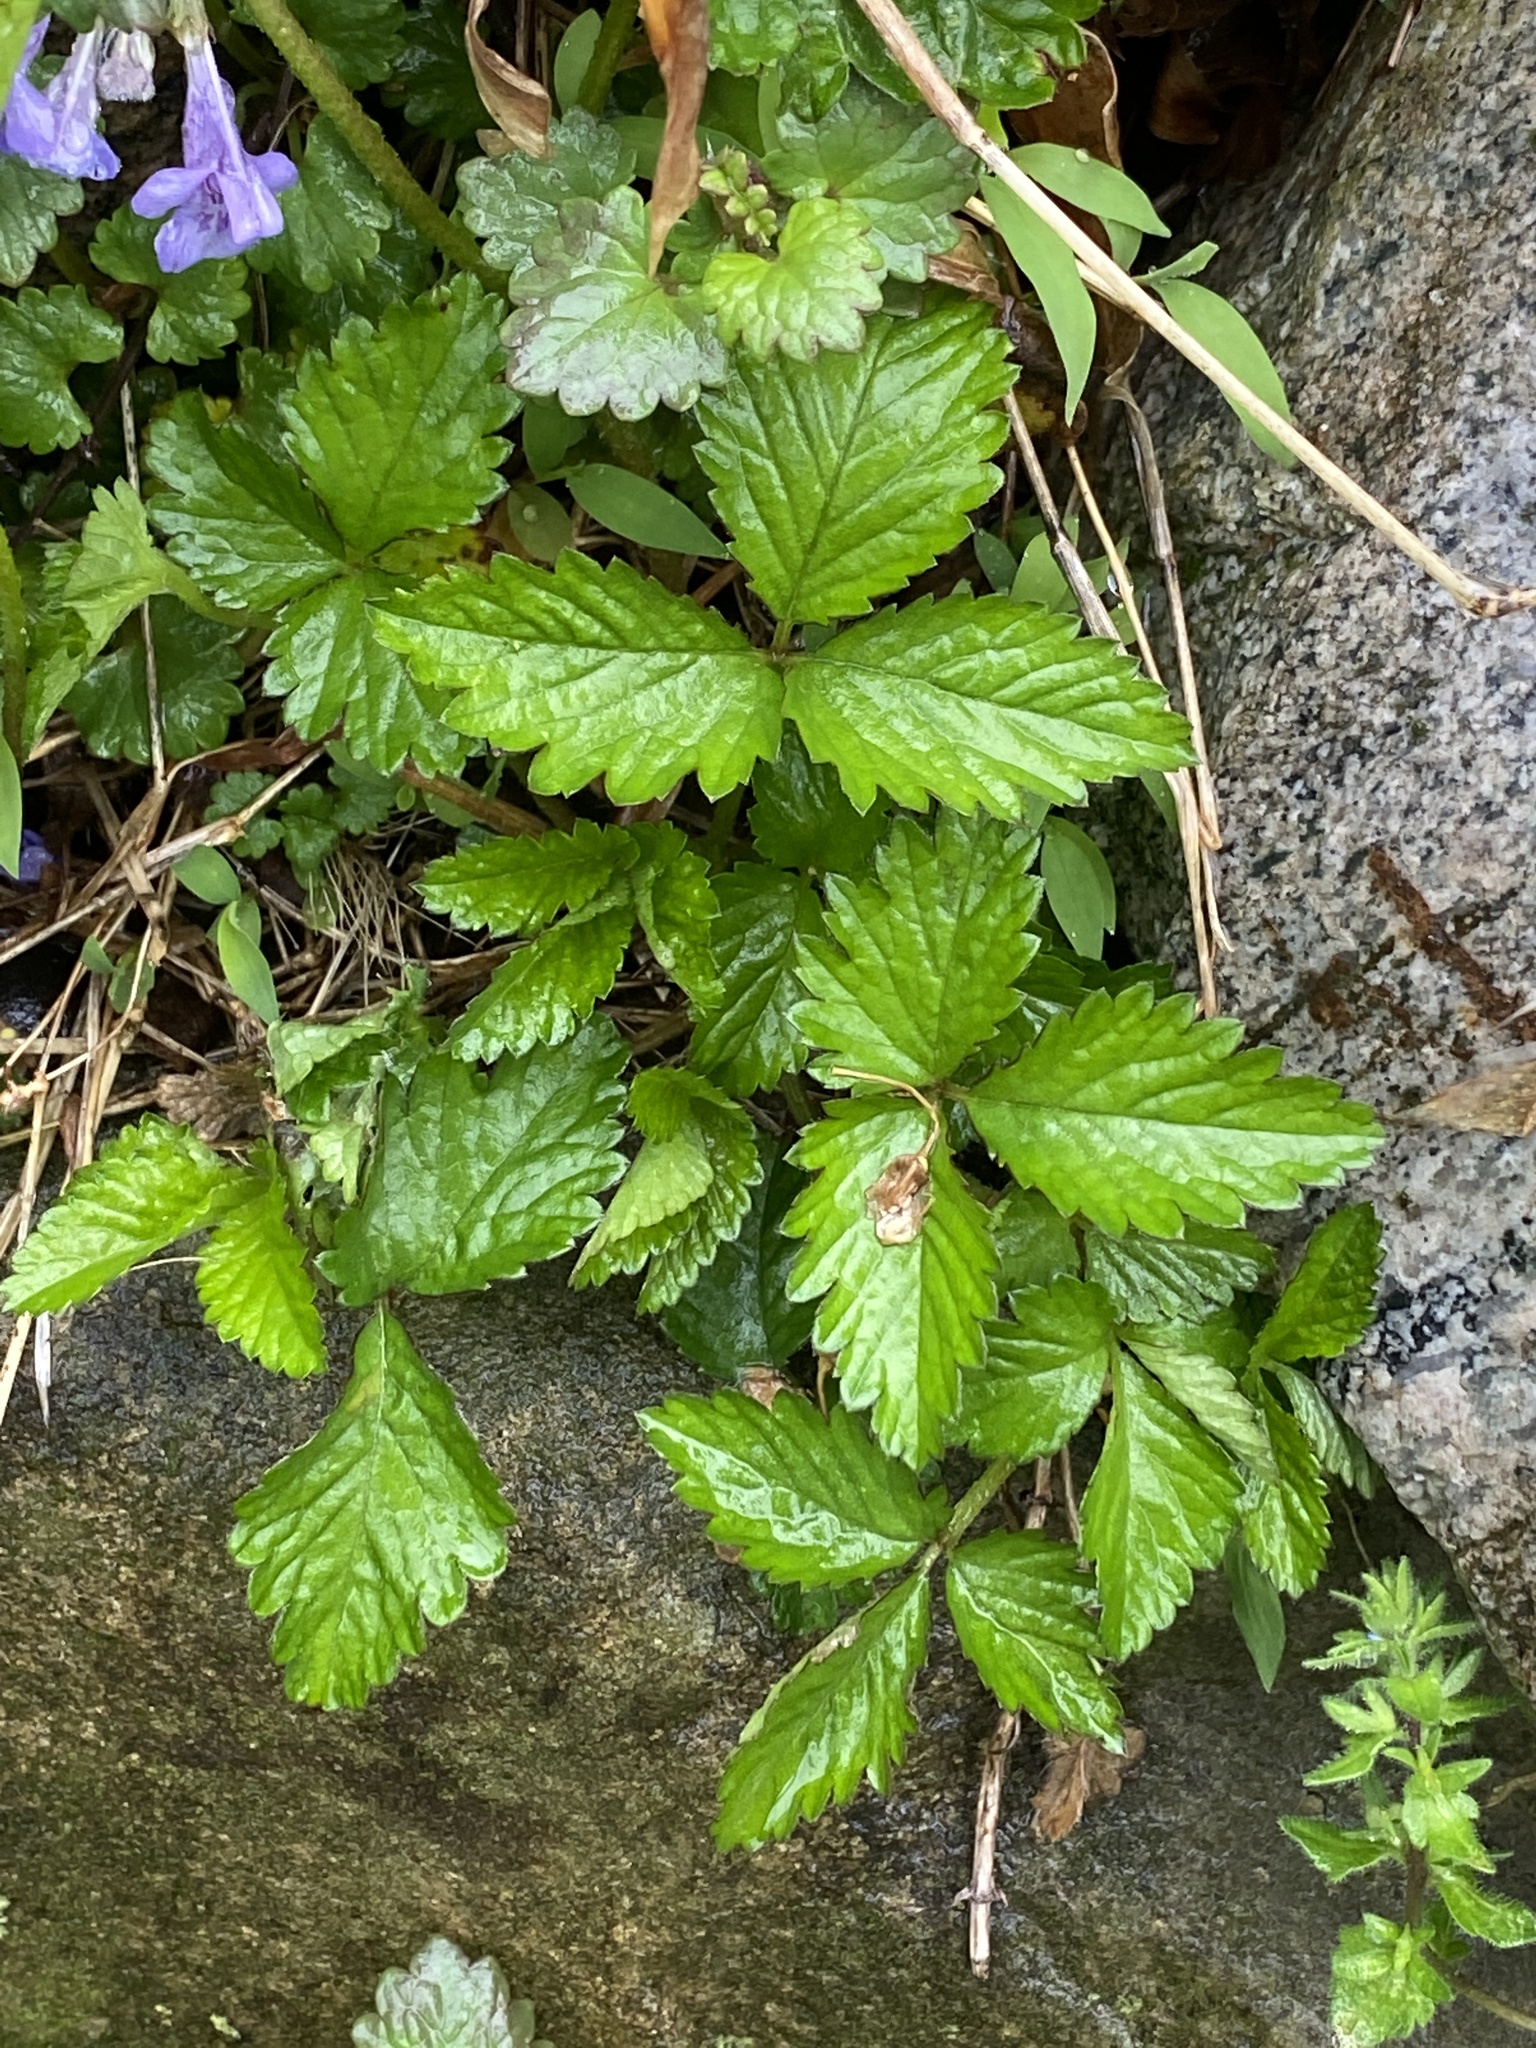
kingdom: Plantae
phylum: Tracheophyta
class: Magnoliopsida
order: Rosales
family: Rosaceae
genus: Potentilla
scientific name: Potentilla indica
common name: Yellow-flowered strawberry
